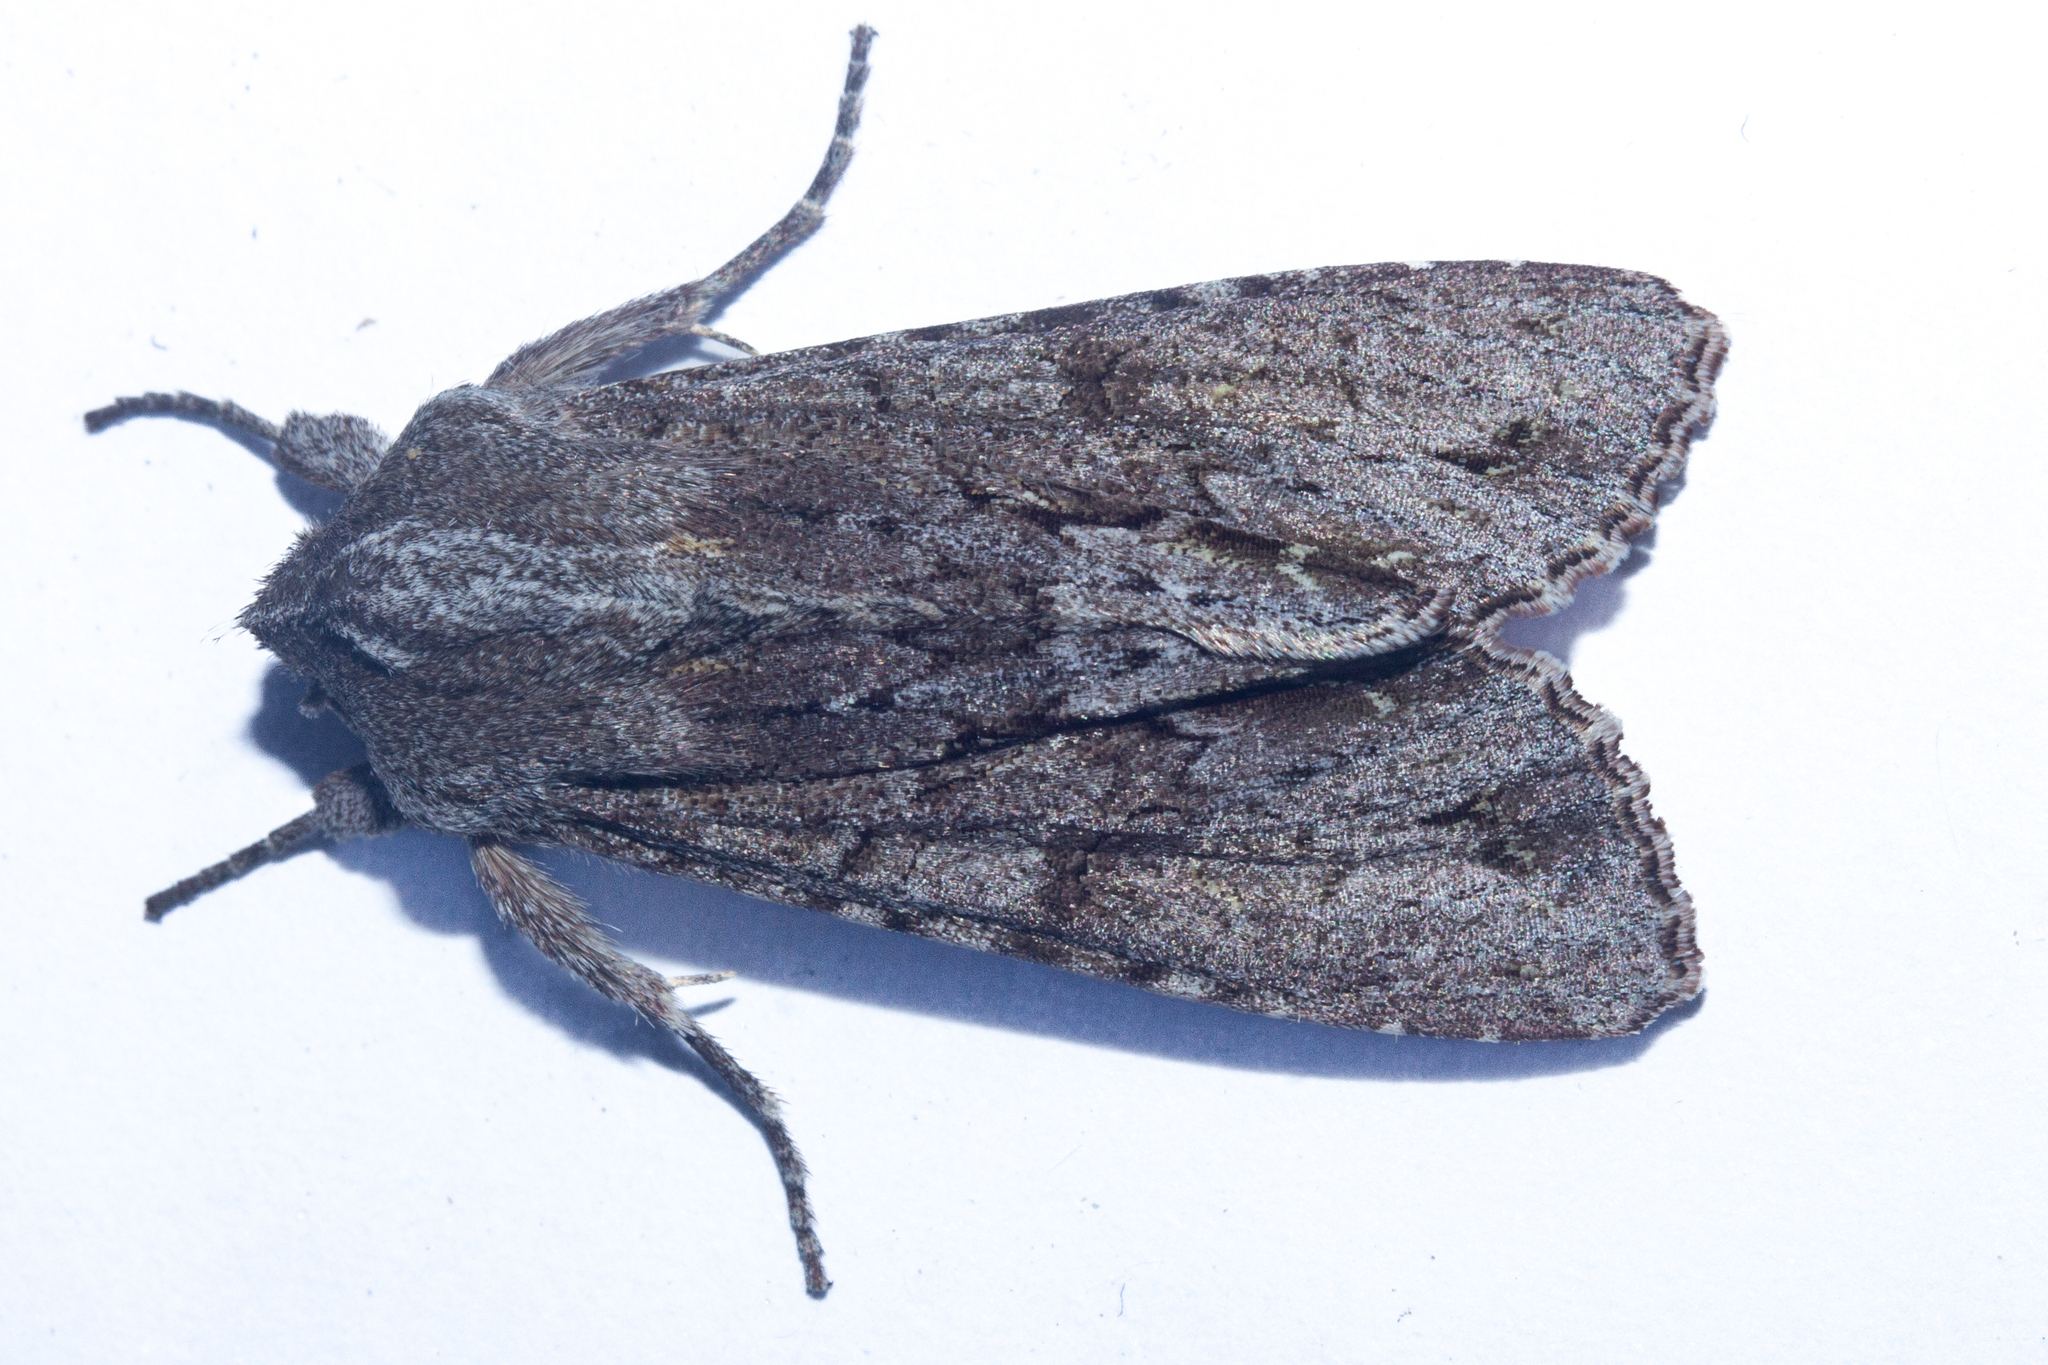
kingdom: Animalia
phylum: Arthropoda
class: Insecta
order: Lepidoptera
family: Noctuidae
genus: Ichneutica
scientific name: Ichneutica
